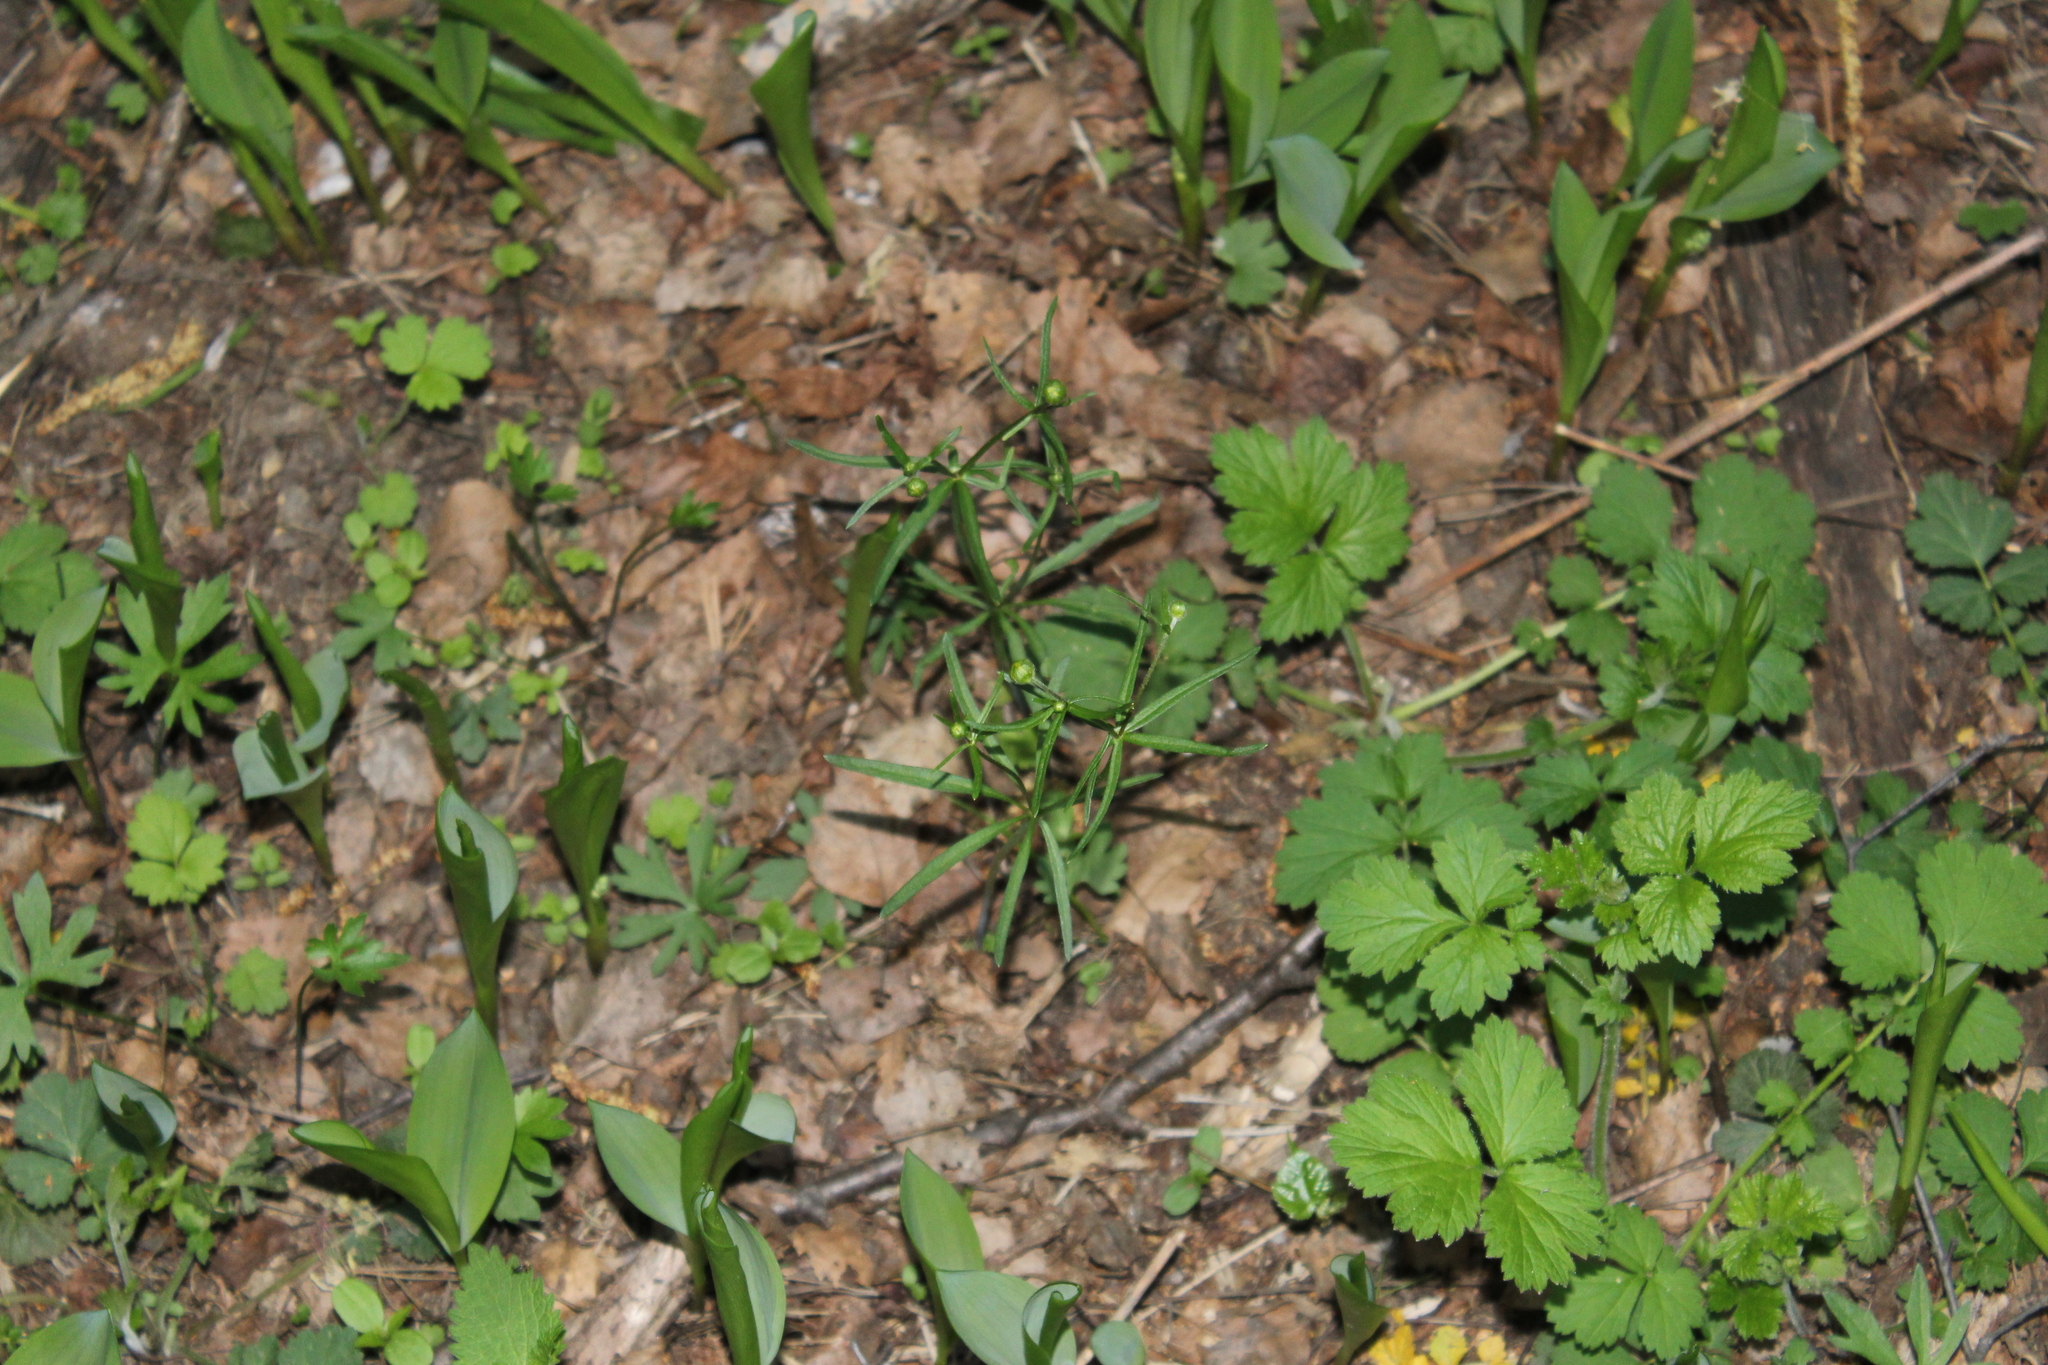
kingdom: Plantae
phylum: Tracheophyta
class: Magnoliopsida
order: Ranunculales
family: Ranunculaceae
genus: Ranunculus
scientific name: Ranunculus auricomus
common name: Goldilocks buttercup
